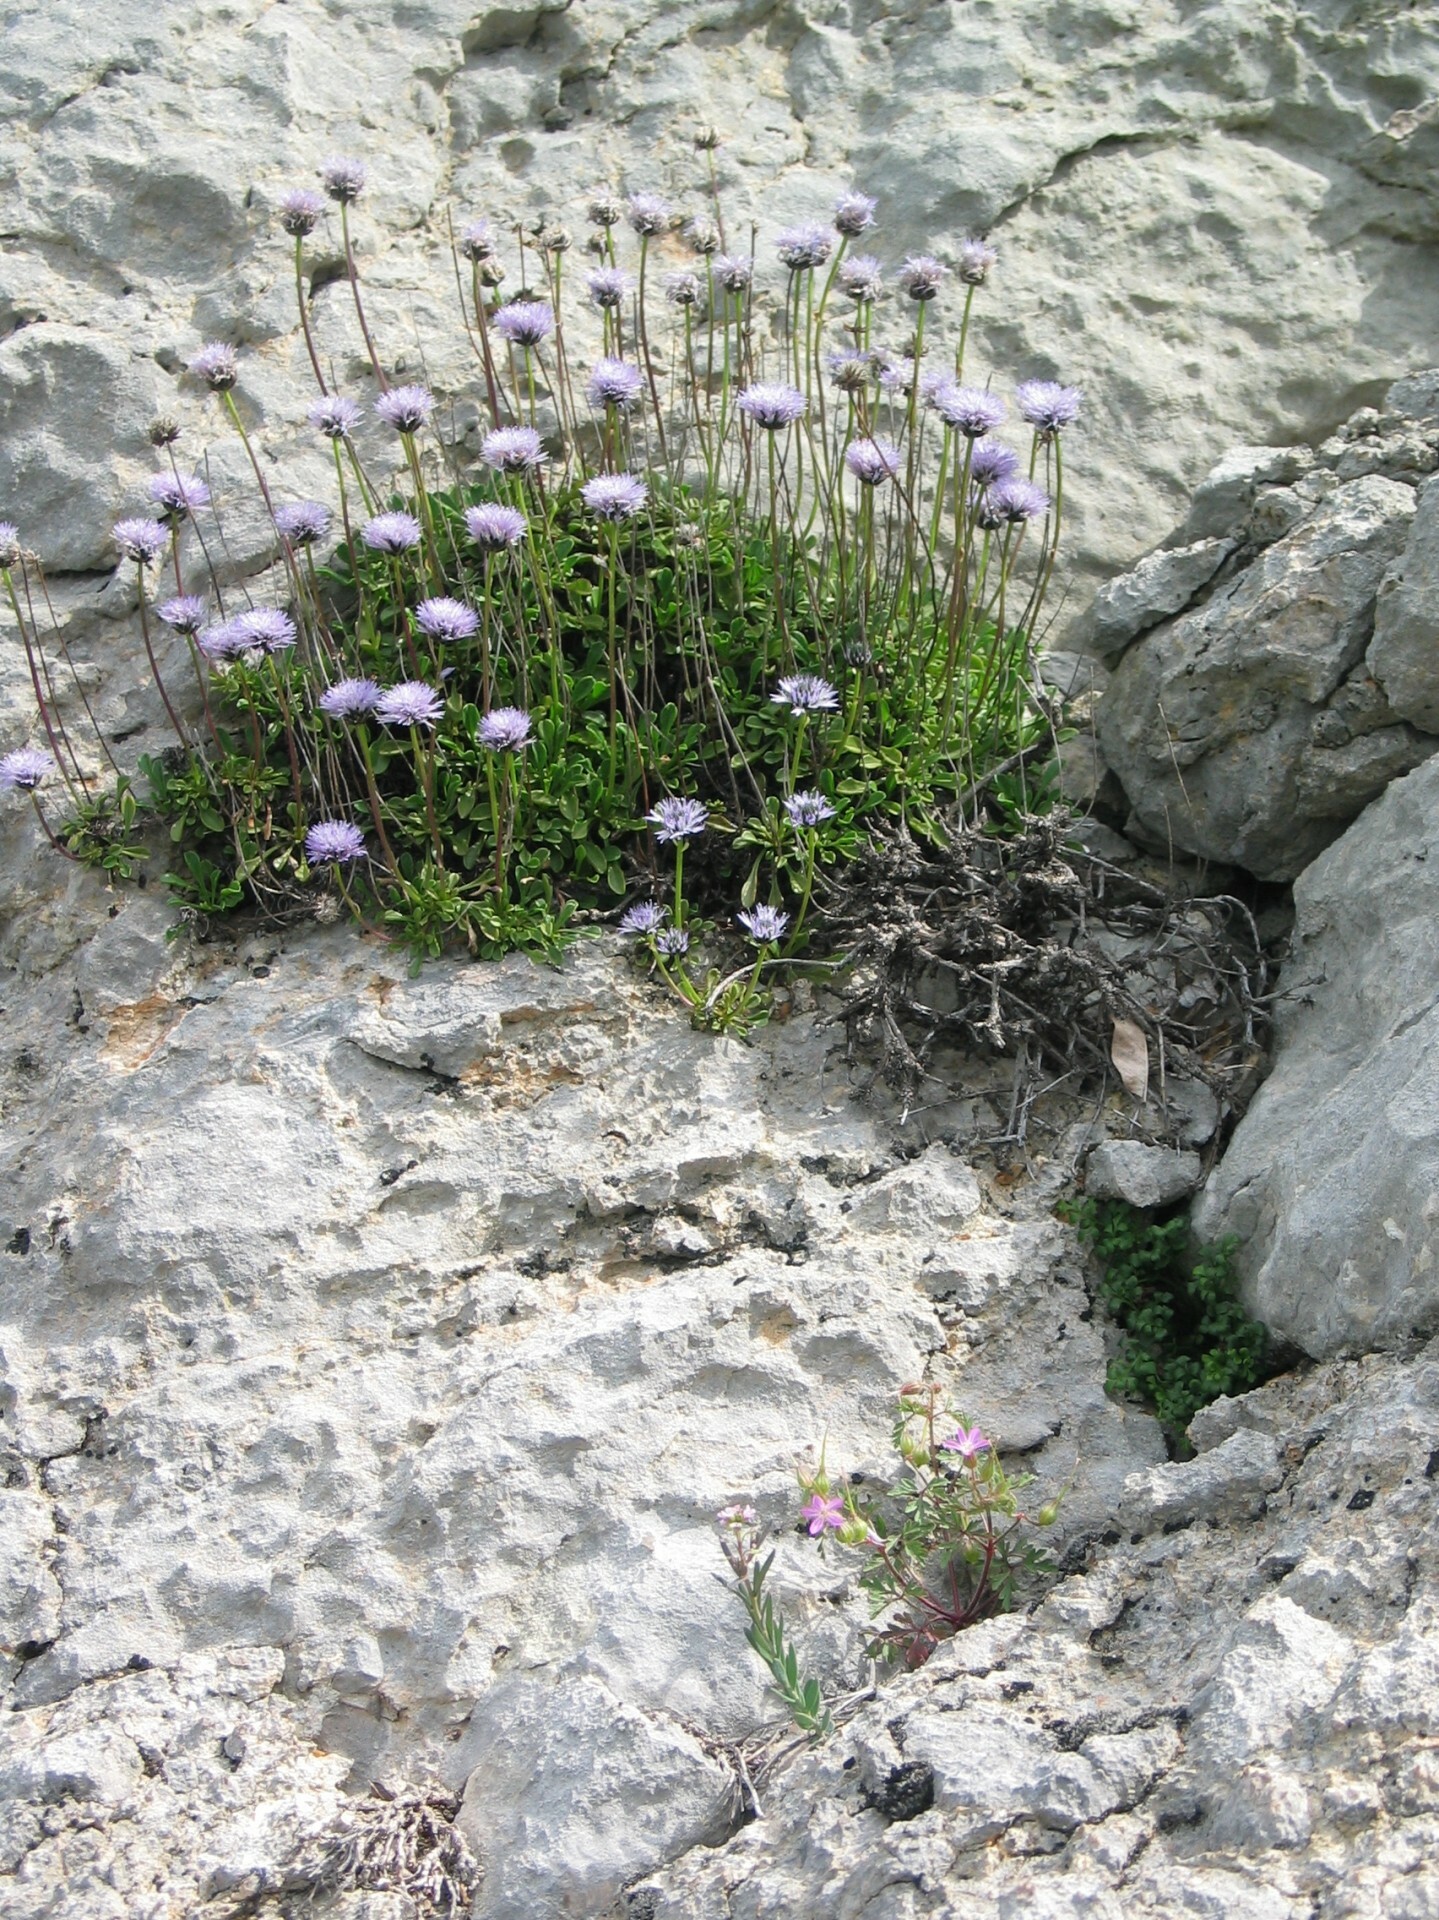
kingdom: Plantae
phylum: Tracheophyta
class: Magnoliopsida
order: Lamiales
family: Plantaginaceae
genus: Globularia
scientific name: Globularia meridionalis
